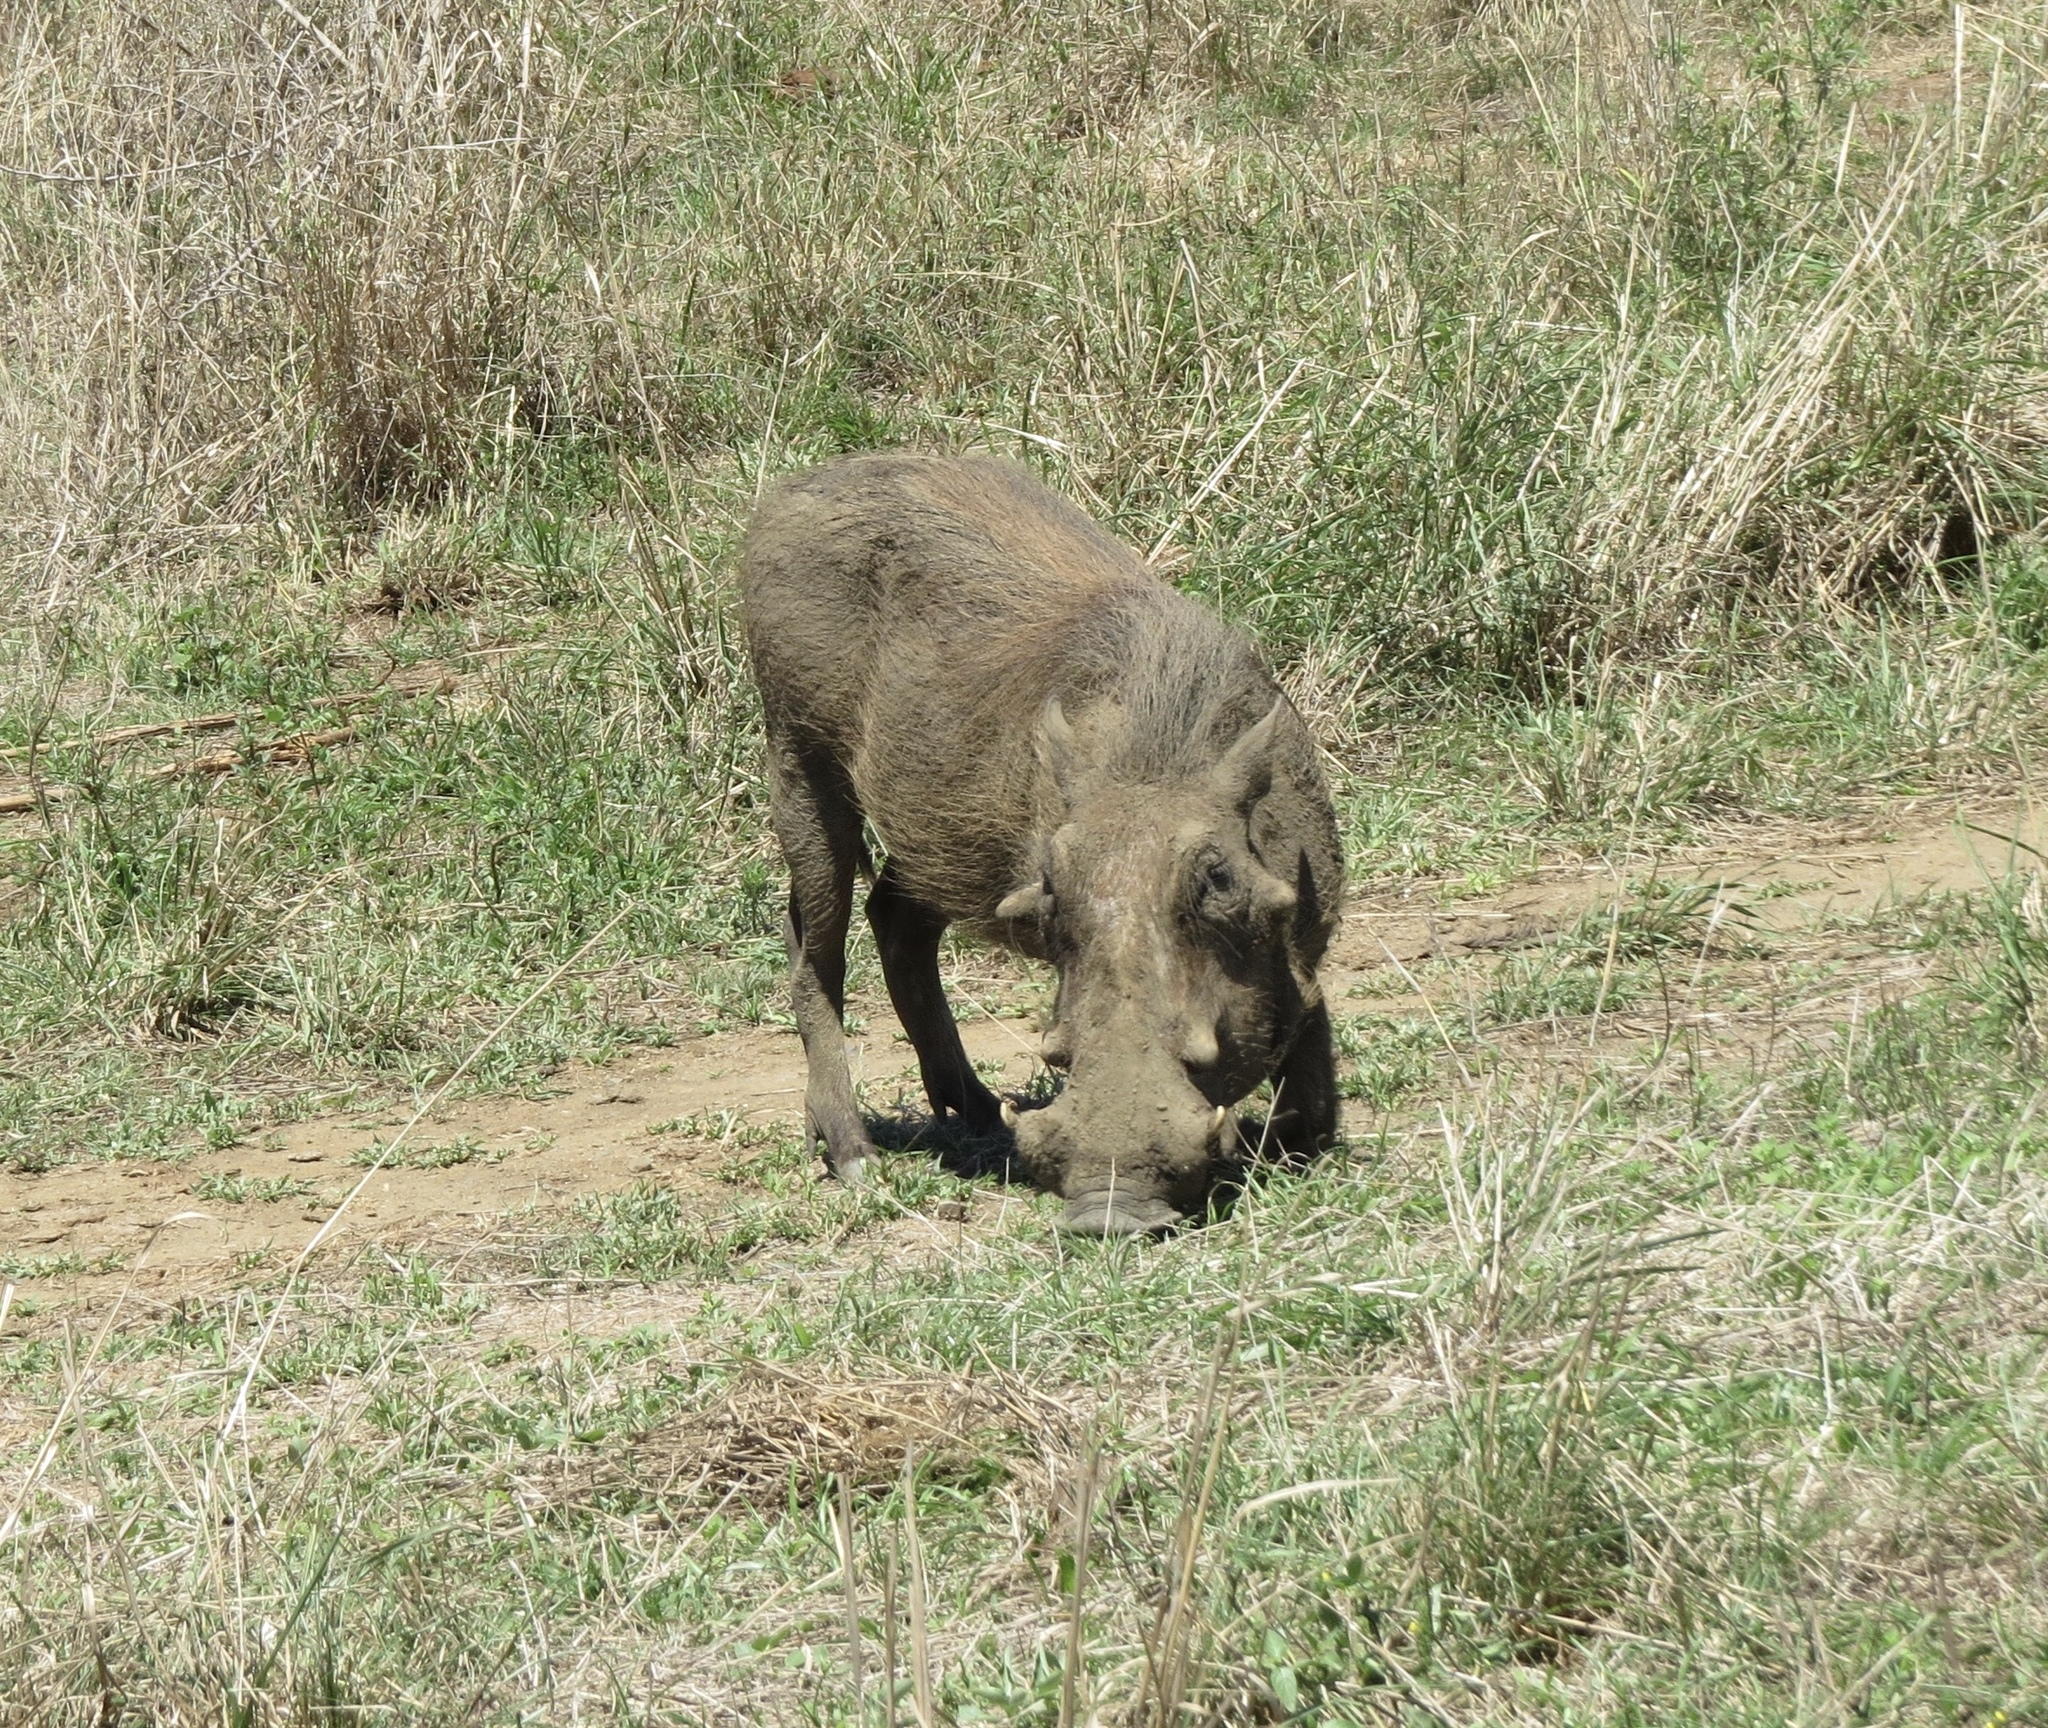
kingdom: Animalia
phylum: Chordata
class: Mammalia
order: Artiodactyla
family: Suidae
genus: Phacochoerus
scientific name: Phacochoerus africanus
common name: Common warthog
